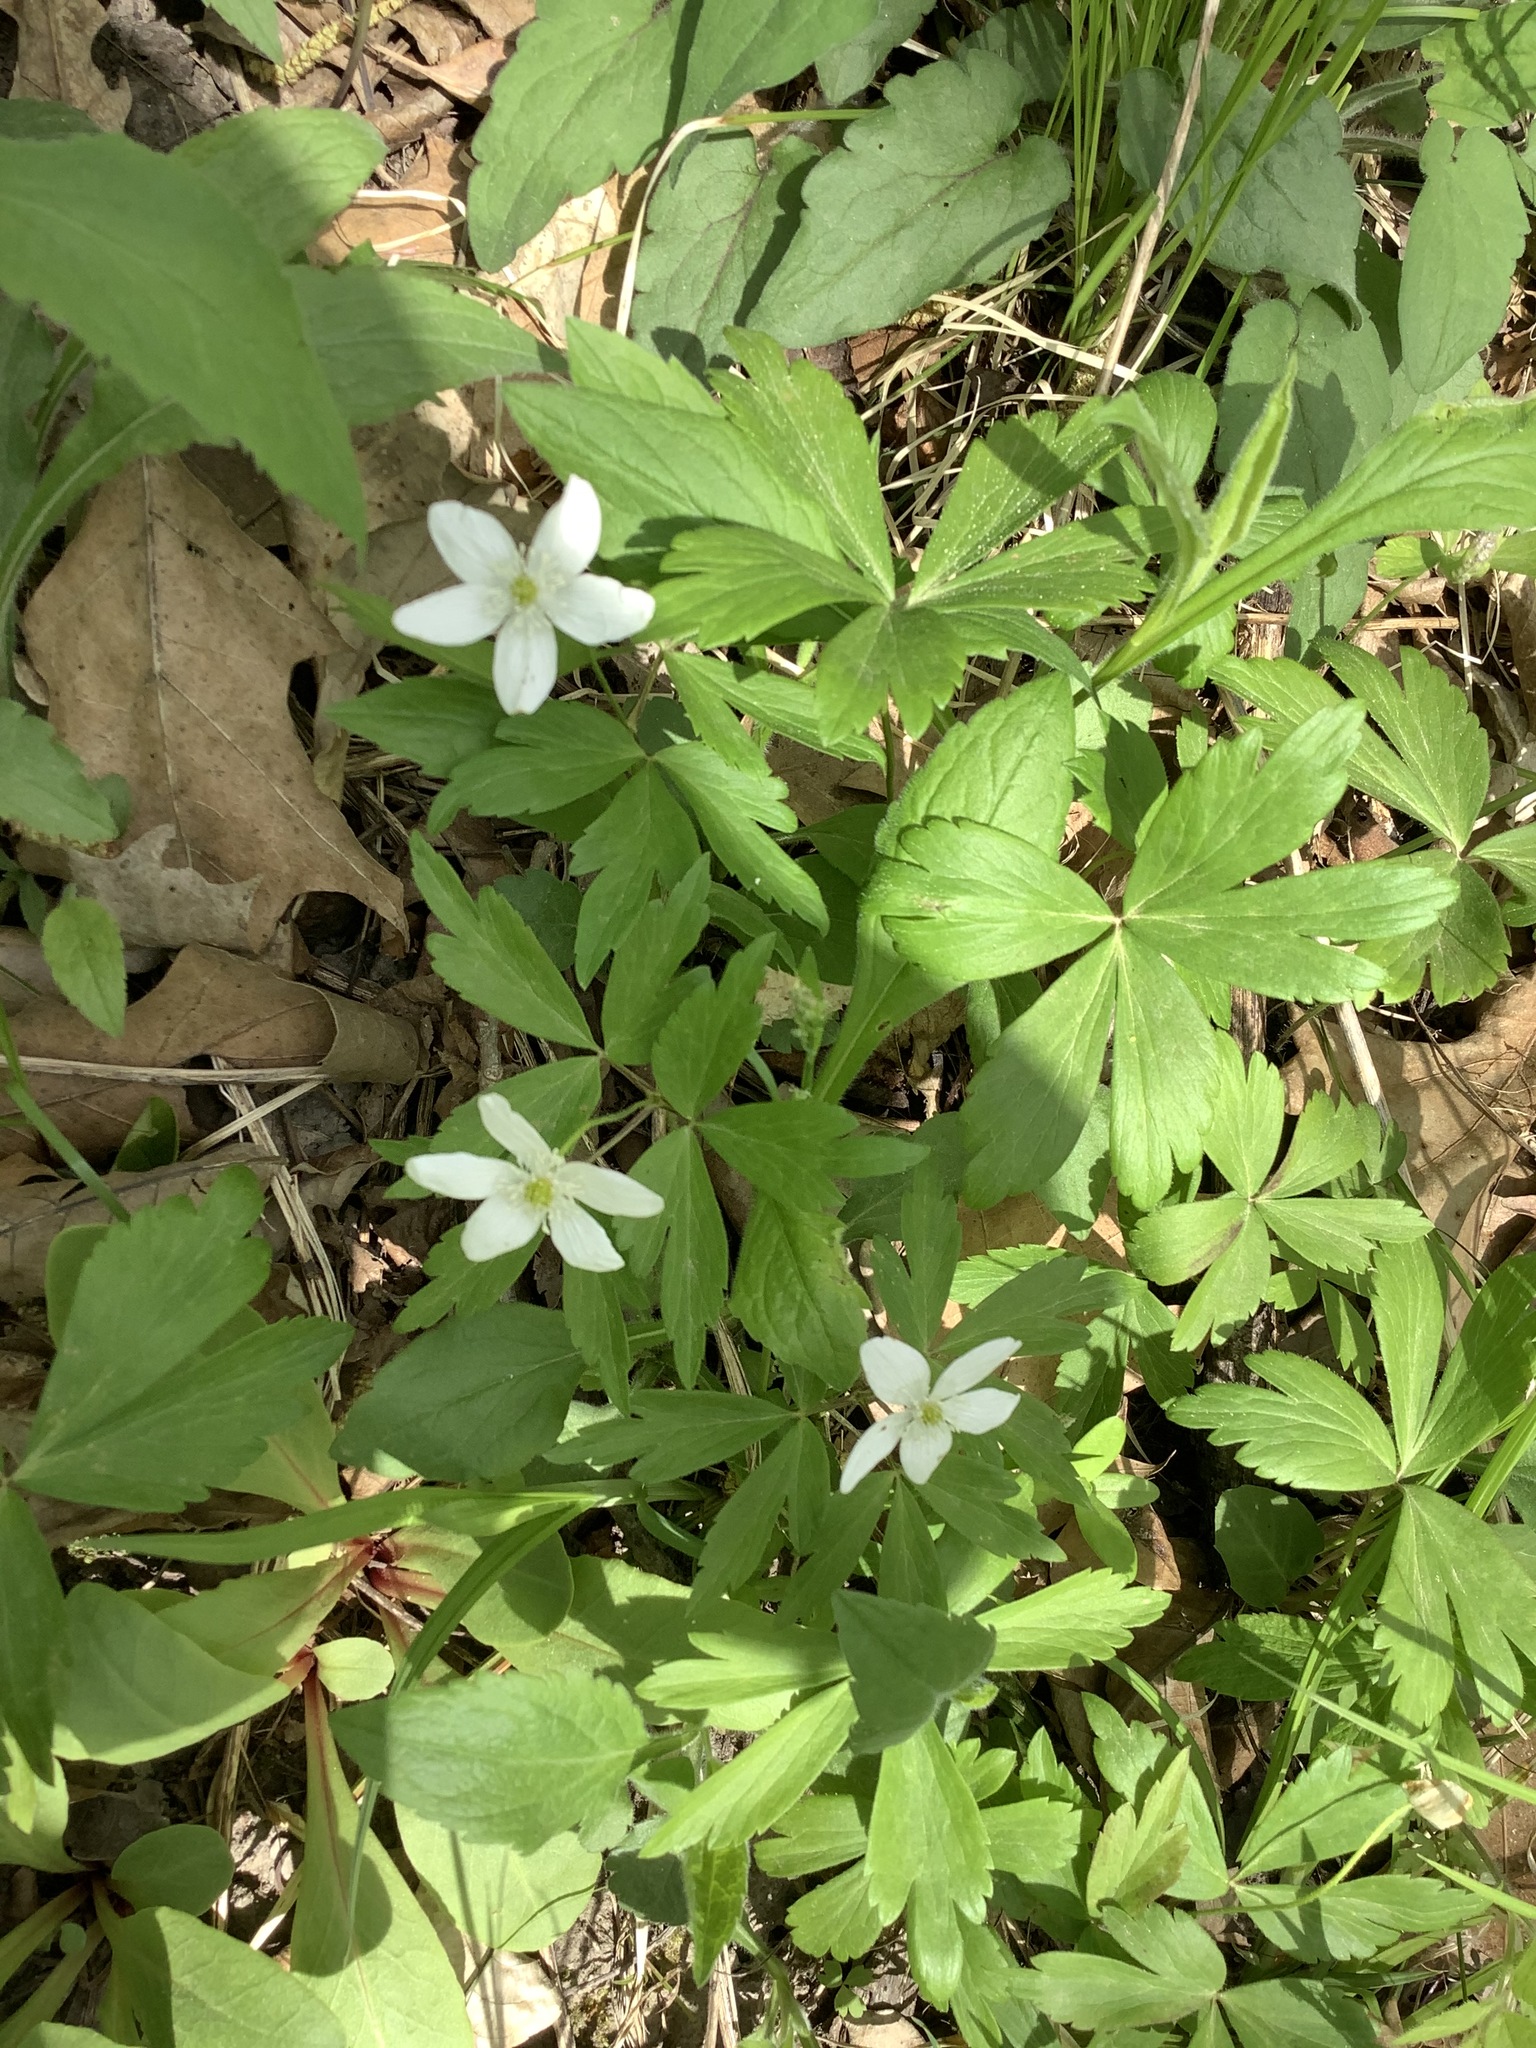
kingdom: Plantae
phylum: Tracheophyta
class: Magnoliopsida
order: Ranunculales
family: Ranunculaceae
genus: Anemone
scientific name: Anemone quinquefolia
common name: Wood anemone
